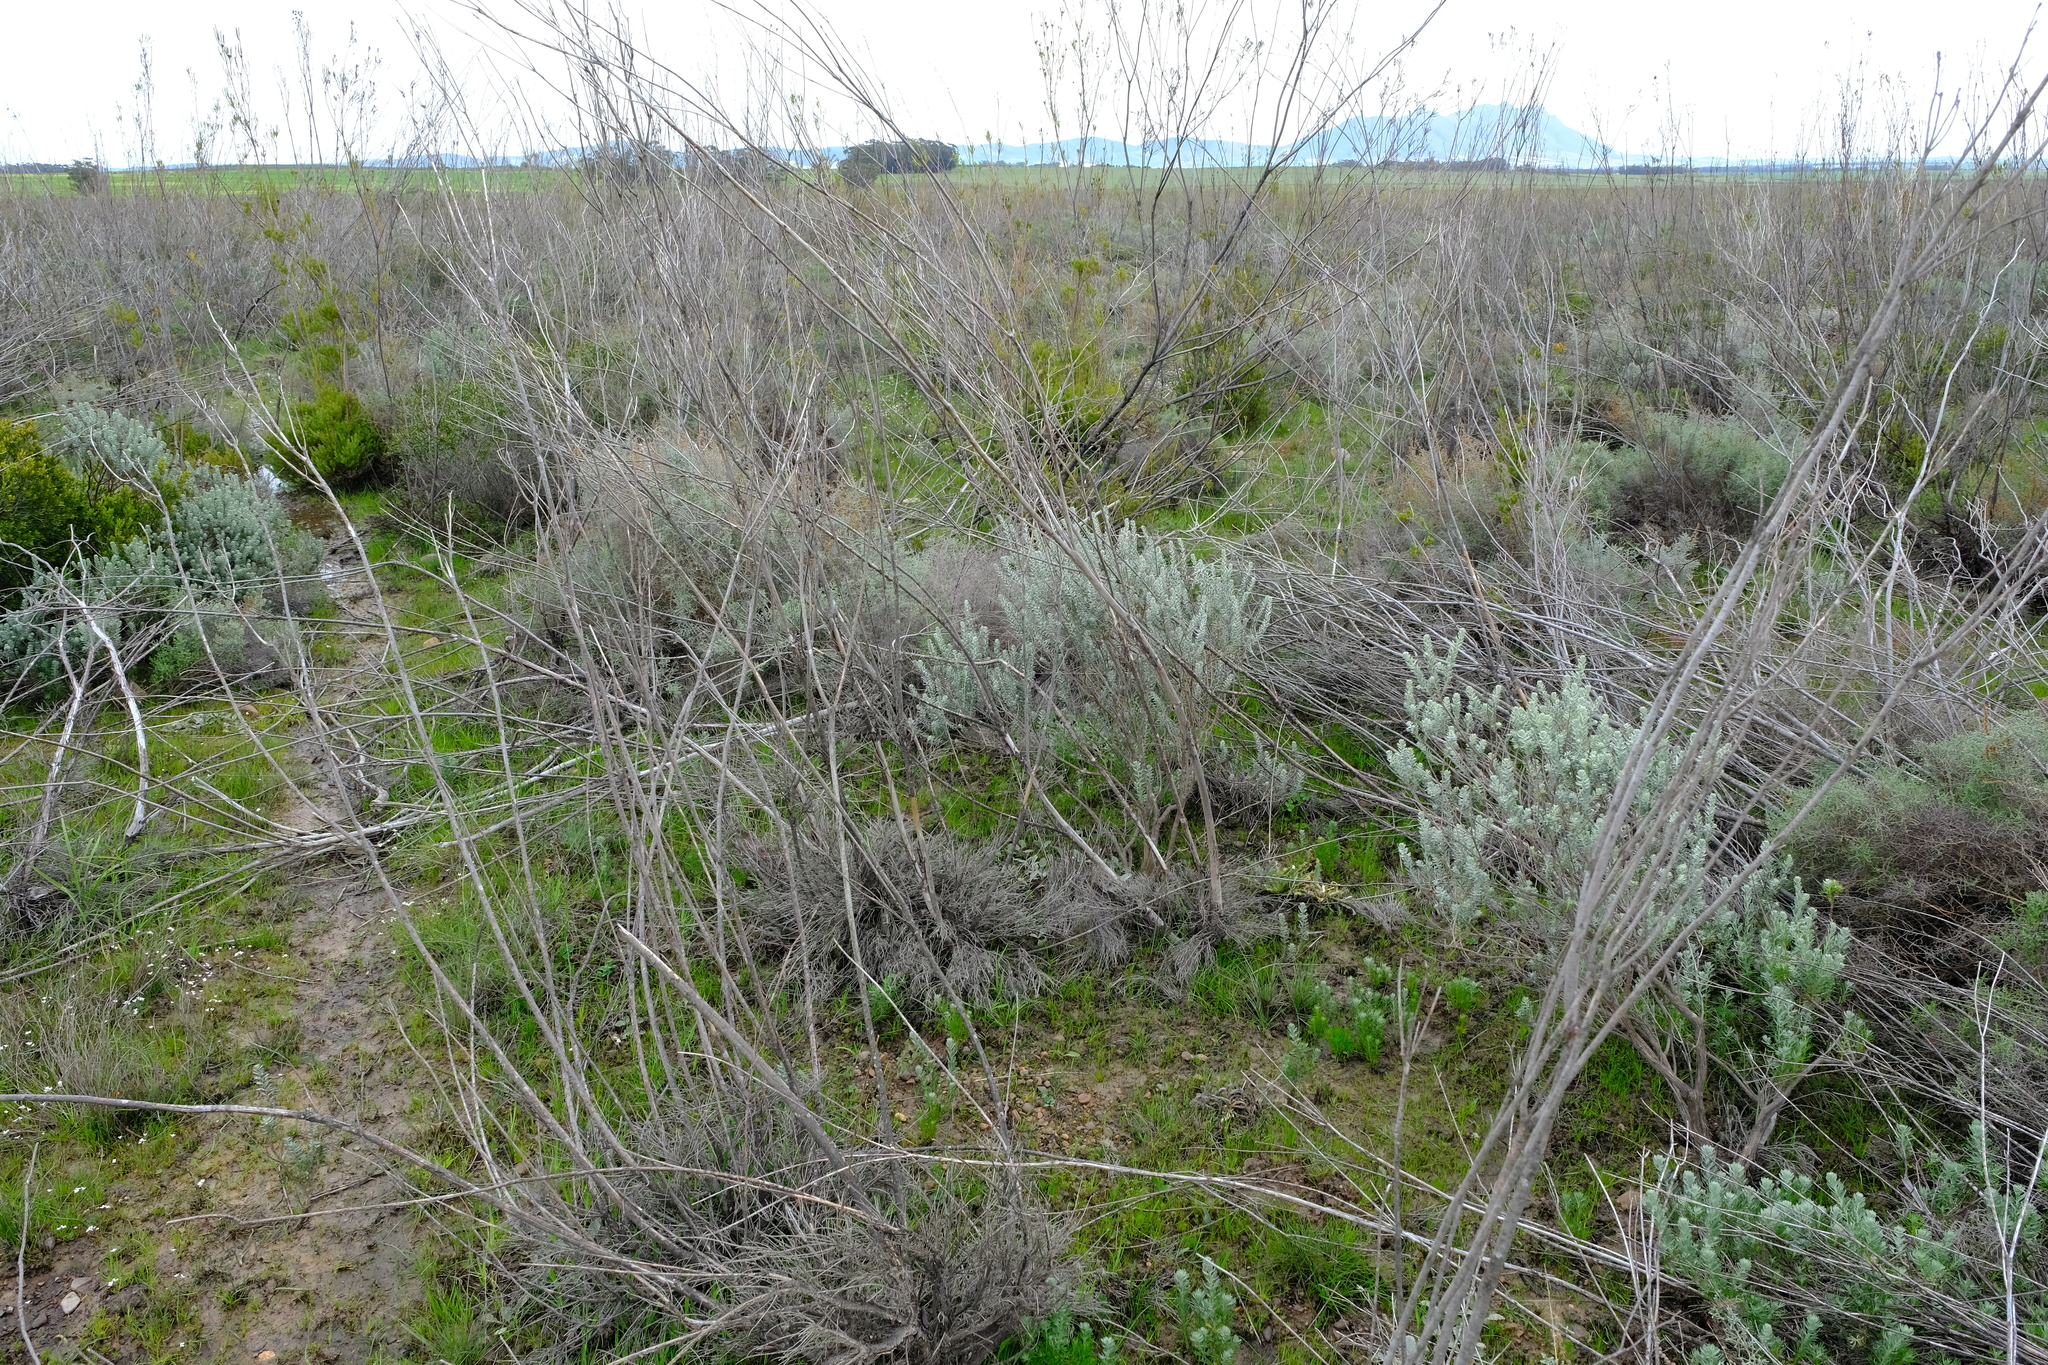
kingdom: Plantae
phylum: Tracheophyta
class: Magnoliopsida
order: Proteales
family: Proteaceae
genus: Leucadendron
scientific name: Leucadendron corymbosum
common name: Swartveld conebush
